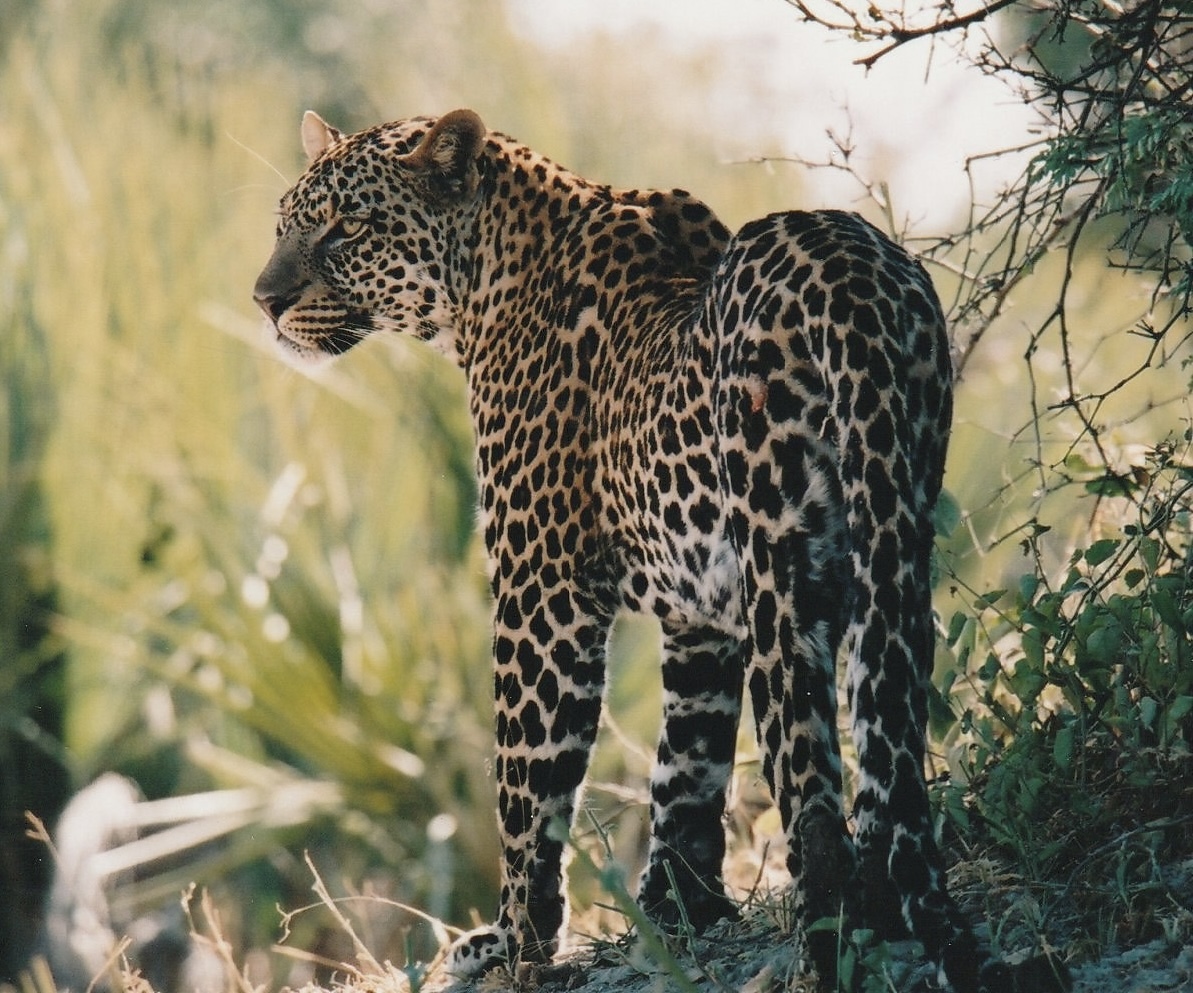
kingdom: Animalia
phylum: Chordata
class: Mammalia
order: Carnivora
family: Felidae
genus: Panthera
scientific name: Panthera pardus
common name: Leopard
